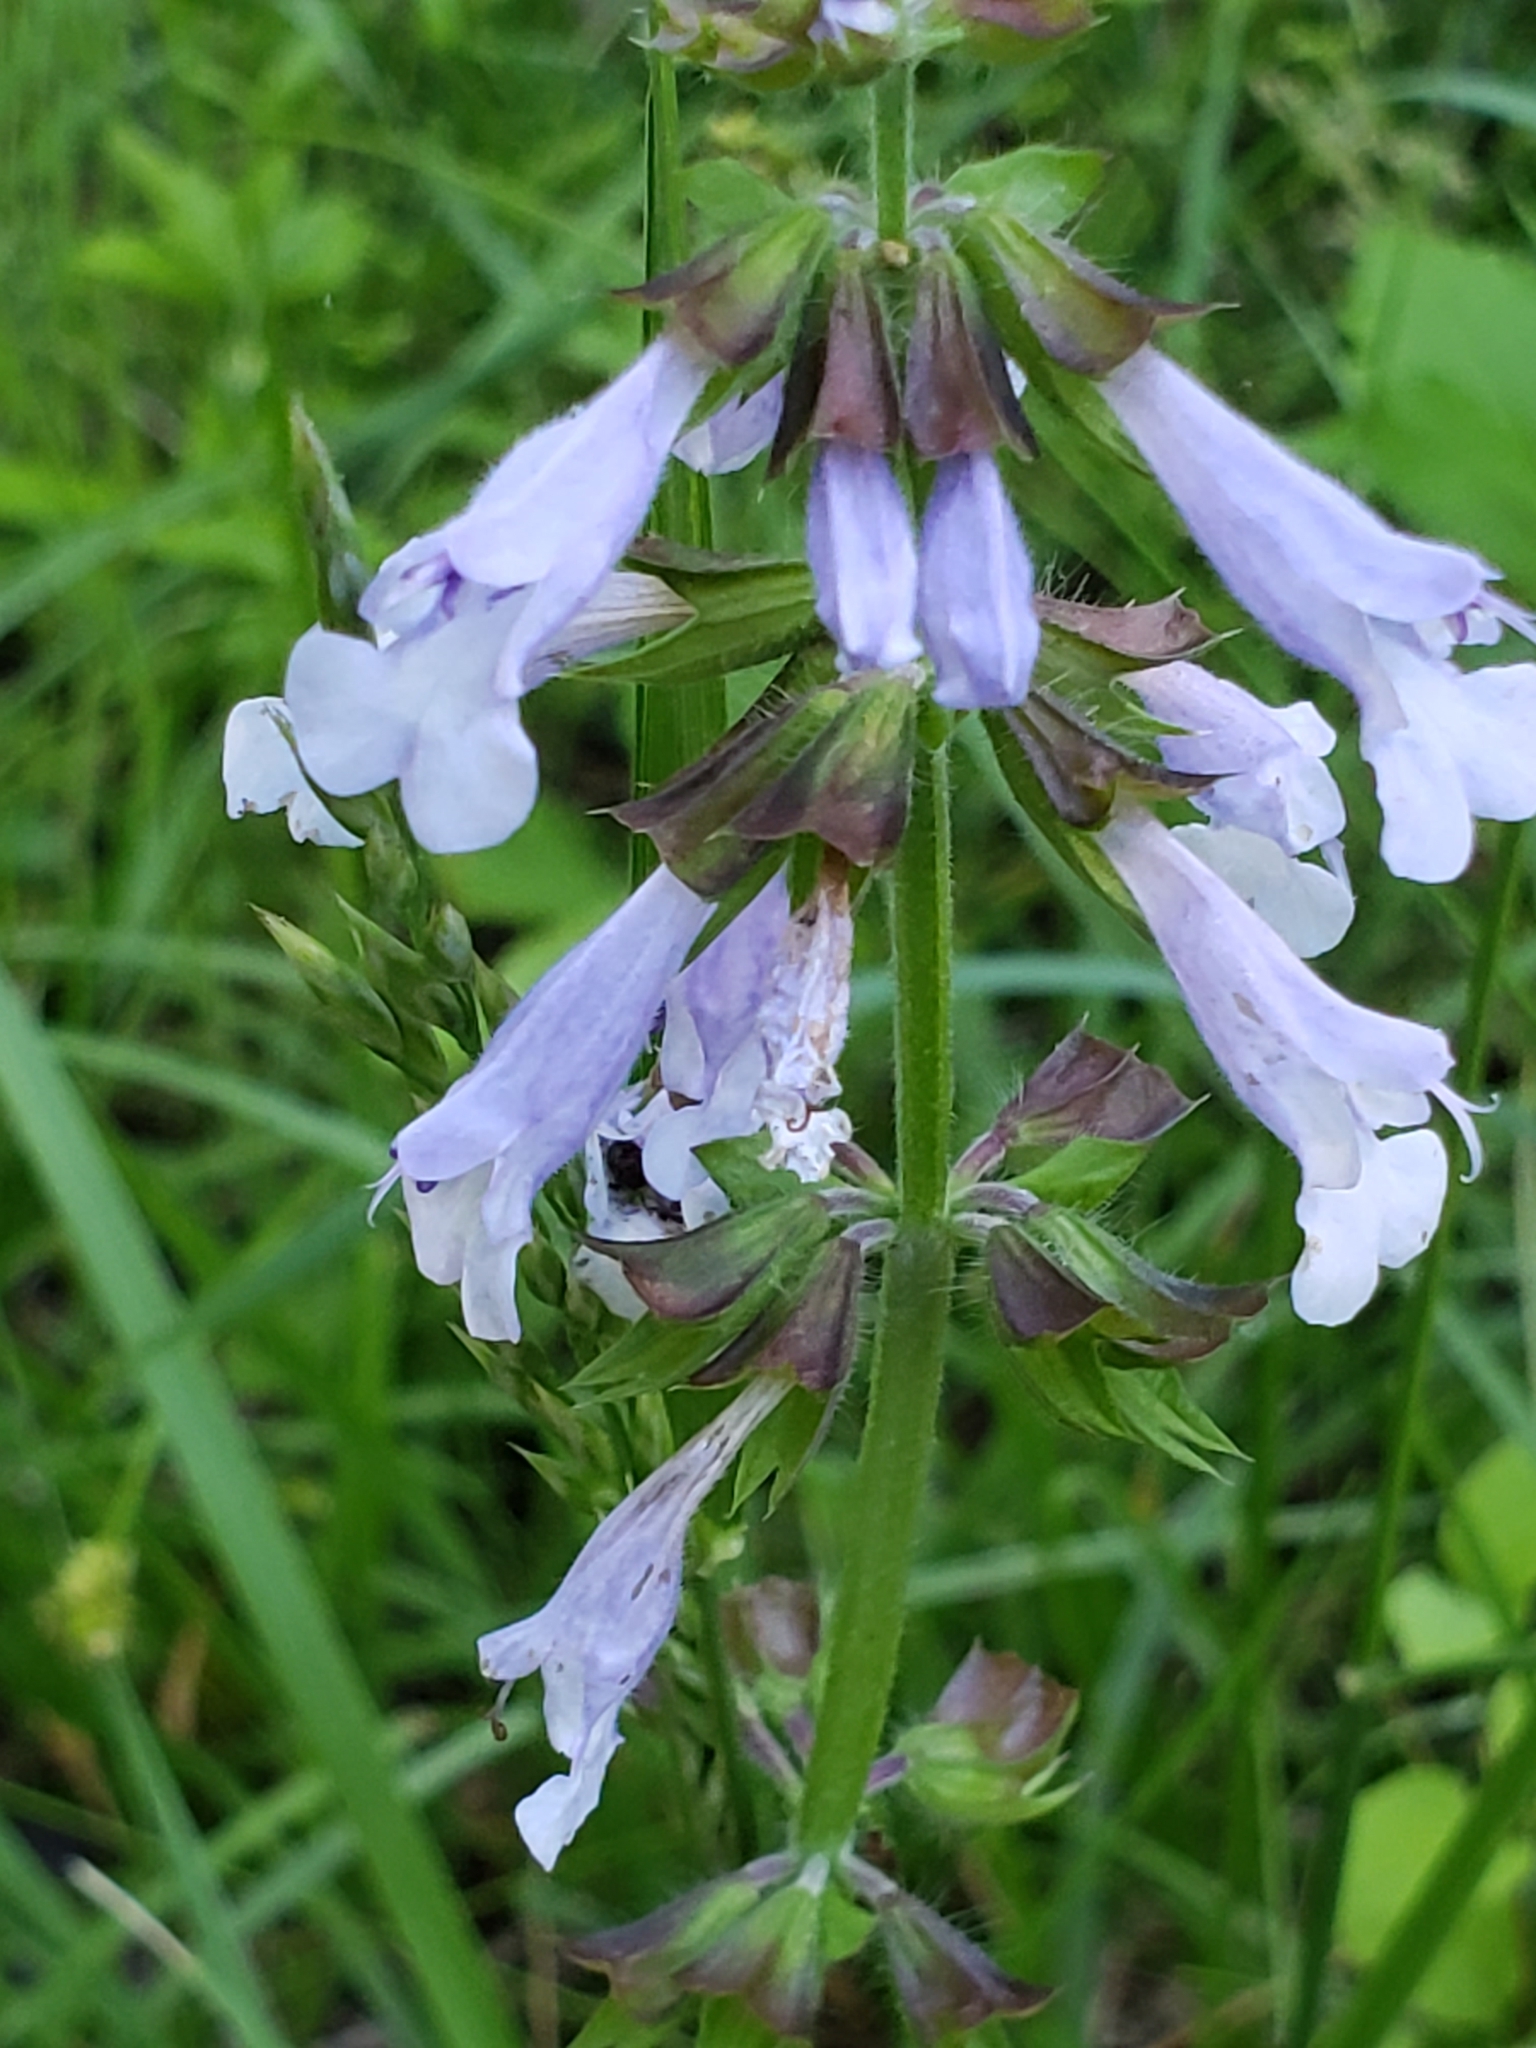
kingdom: Plantae
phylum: Tracheophyta
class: Magnoliopsida
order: Lamiales
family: Lamiaceae
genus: Salvia
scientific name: Salvia lyrata
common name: Cancerweed
